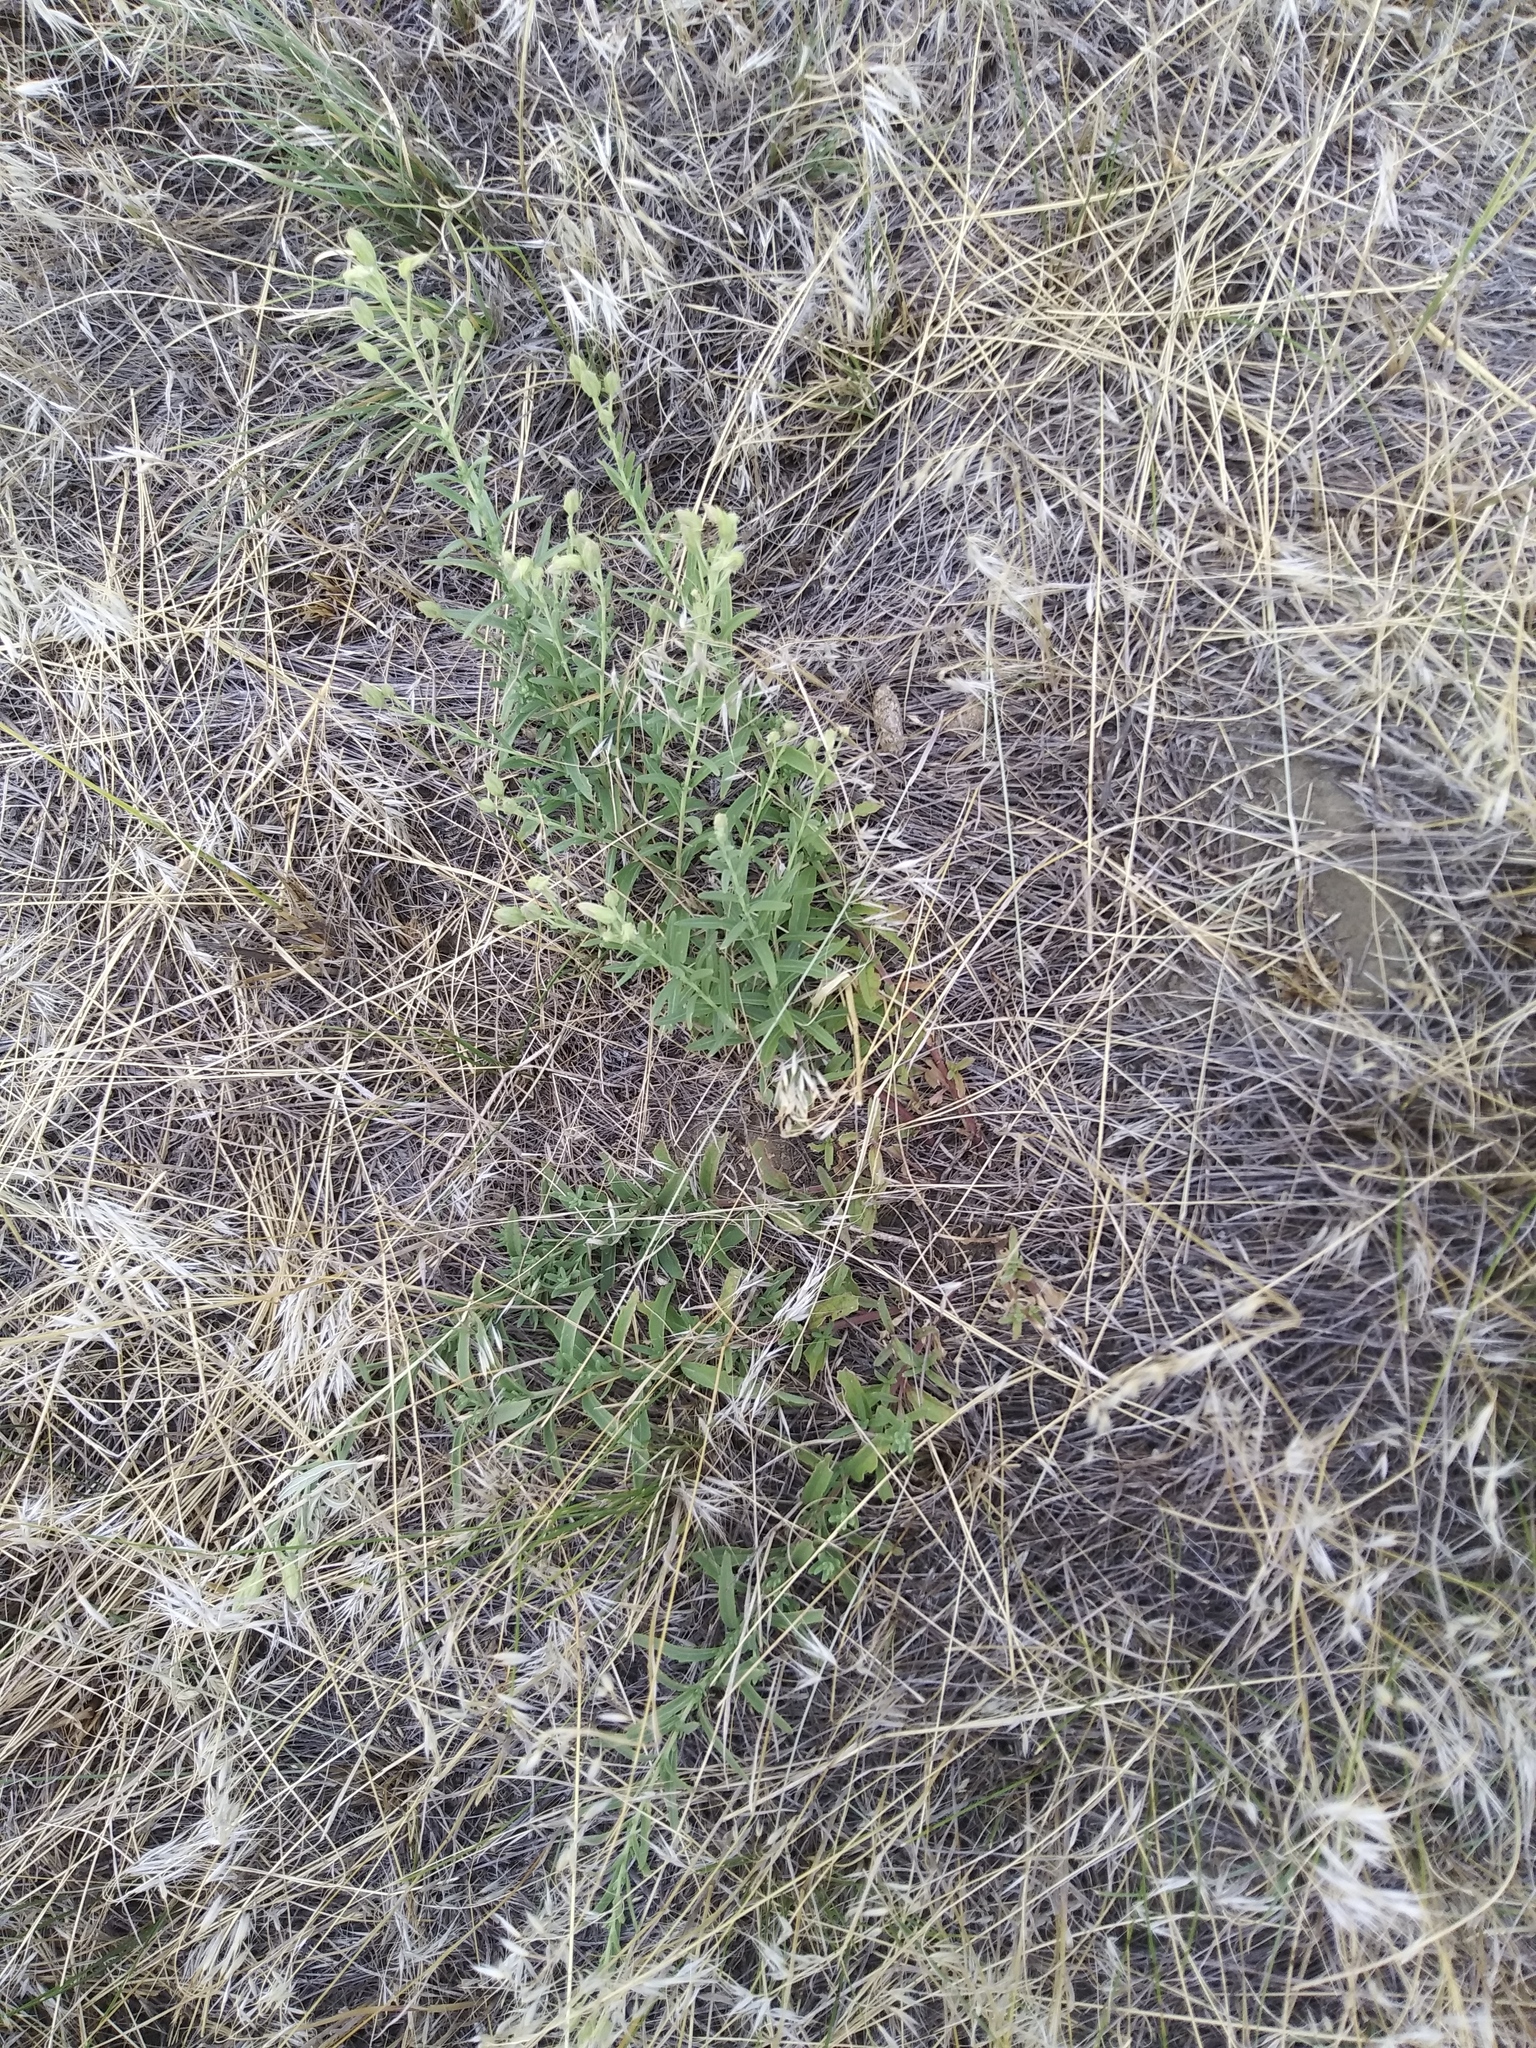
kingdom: Plantae
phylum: Tracheophyta
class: Magnoliopsida
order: Asterales
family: Asteraceae
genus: Brickellia
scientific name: Brickellia eupatorioides
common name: False boneset
